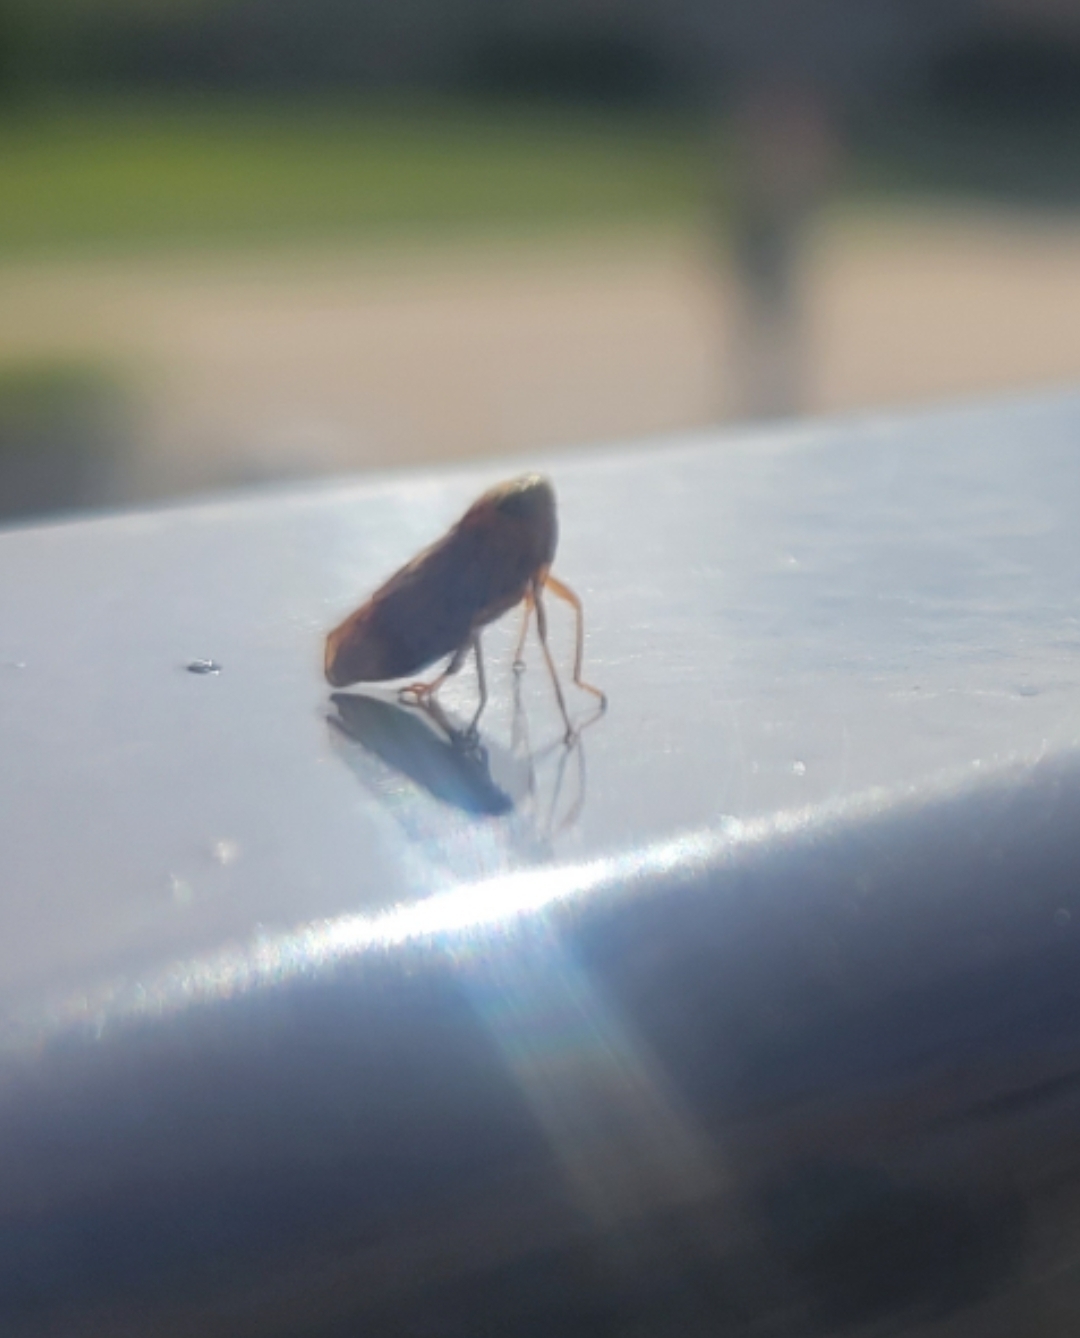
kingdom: Animalia
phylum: Arthropoda
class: Insecta
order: Hemiptera
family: Cicadellidae
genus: Jikradia
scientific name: Jikradia olitoria
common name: Coppery leafhopper
